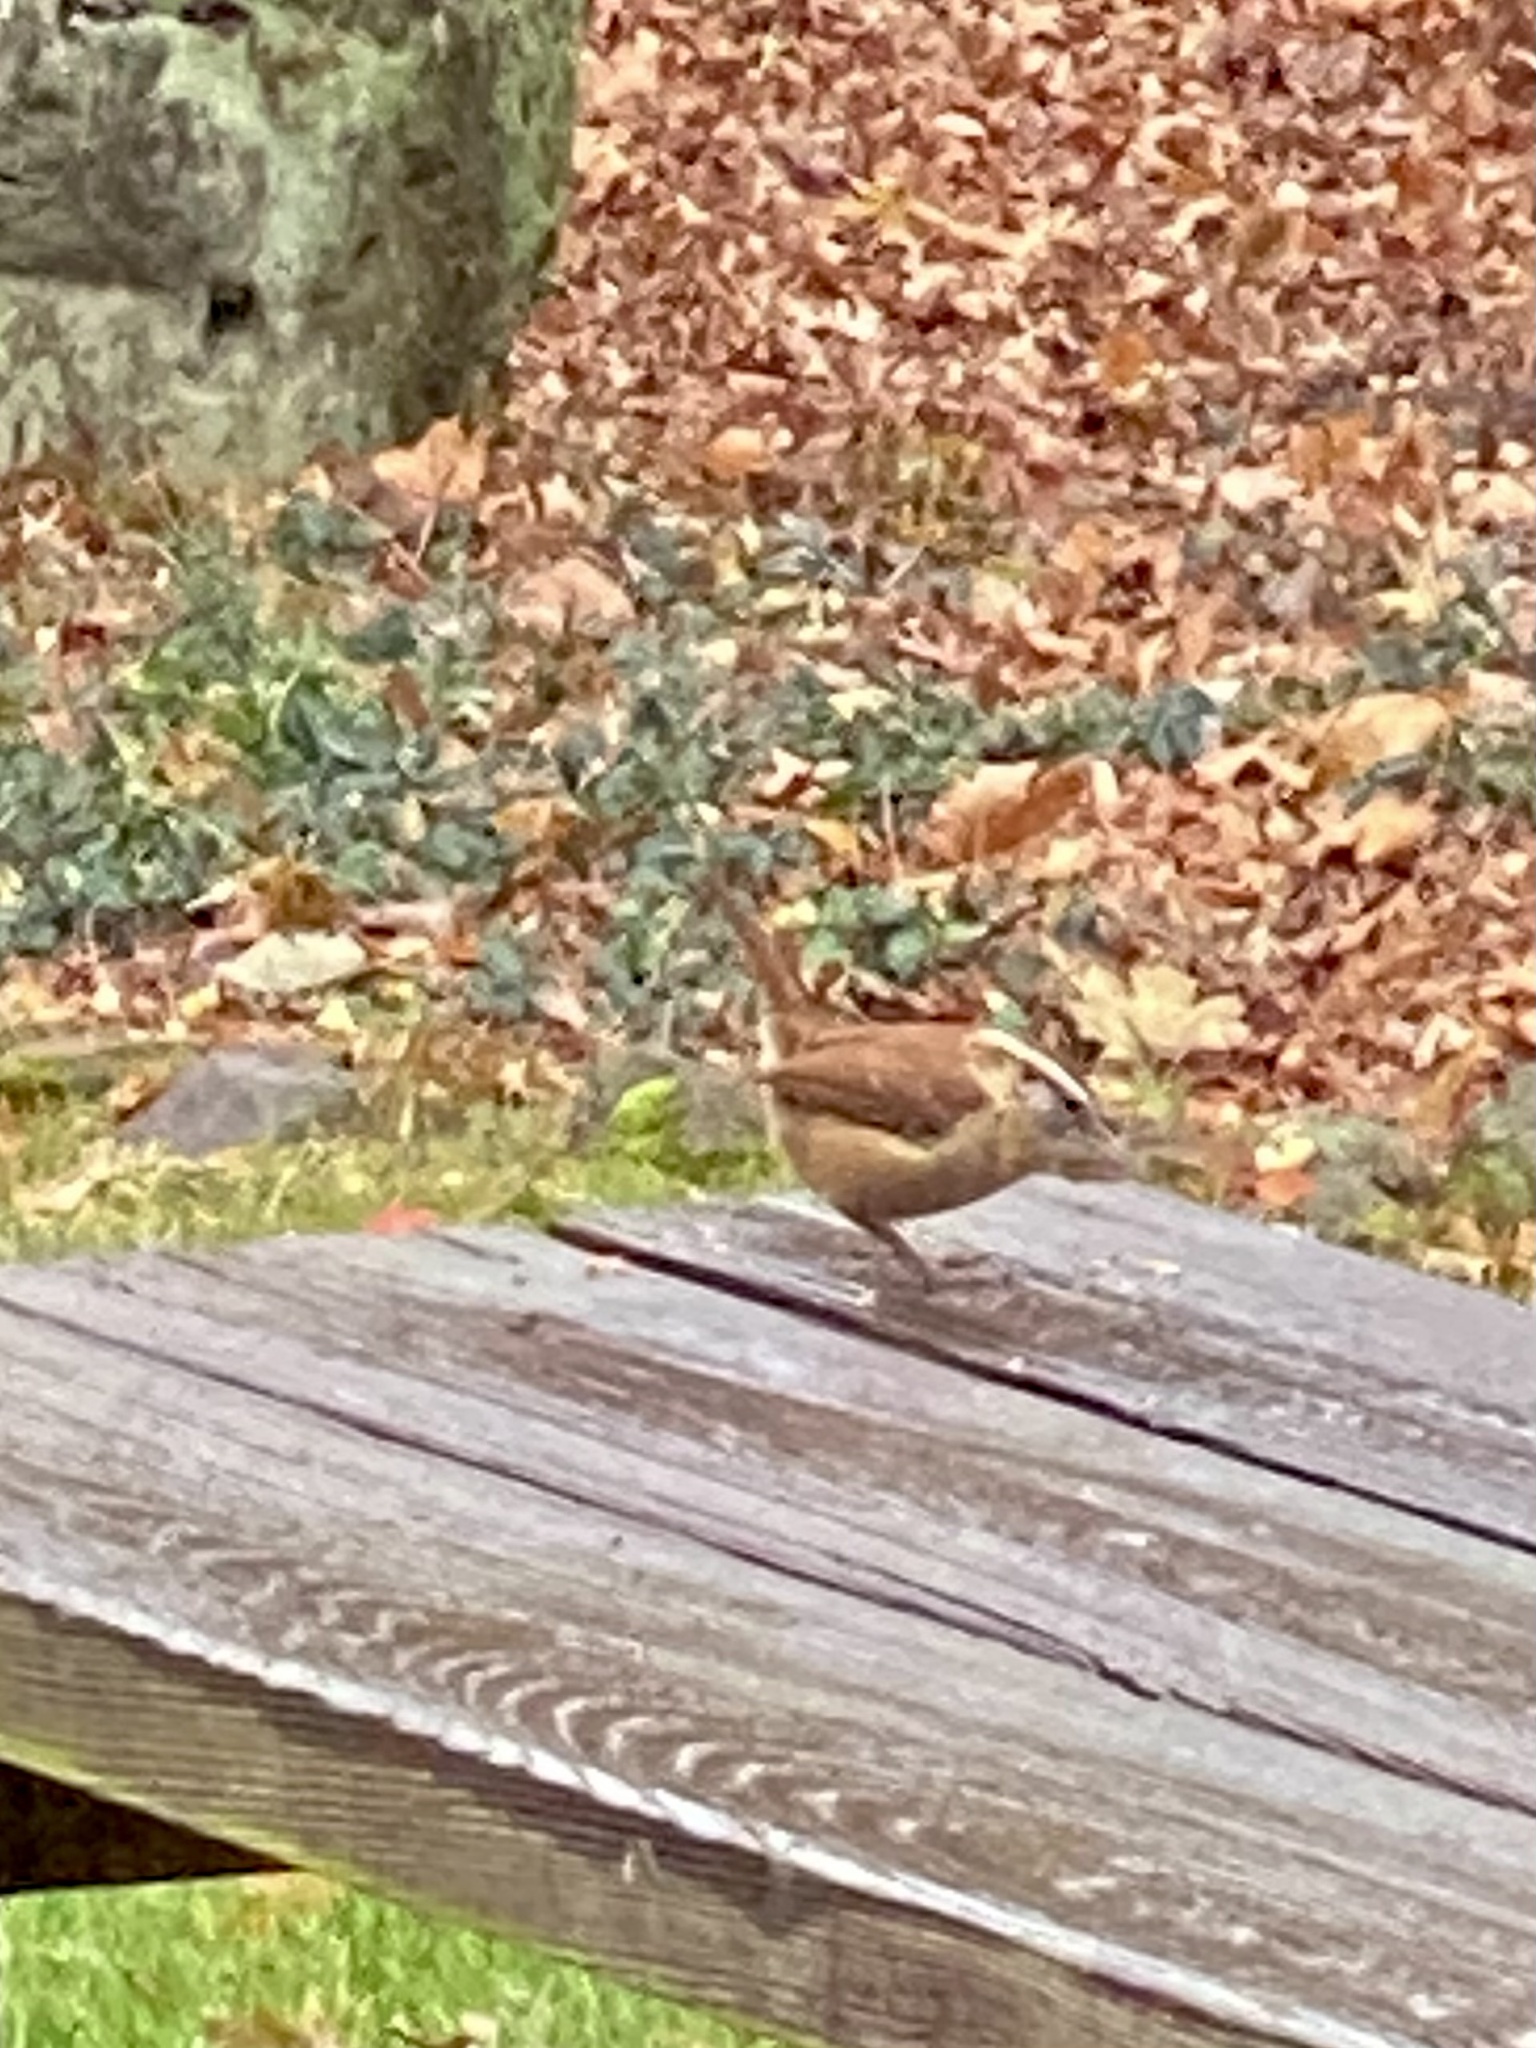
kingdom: Animalia
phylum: Chordata
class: Aves
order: Passeriformes
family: Troglodytidae
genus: Thryothorus
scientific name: Thryothorus ludovicianus
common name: Carolina wren
